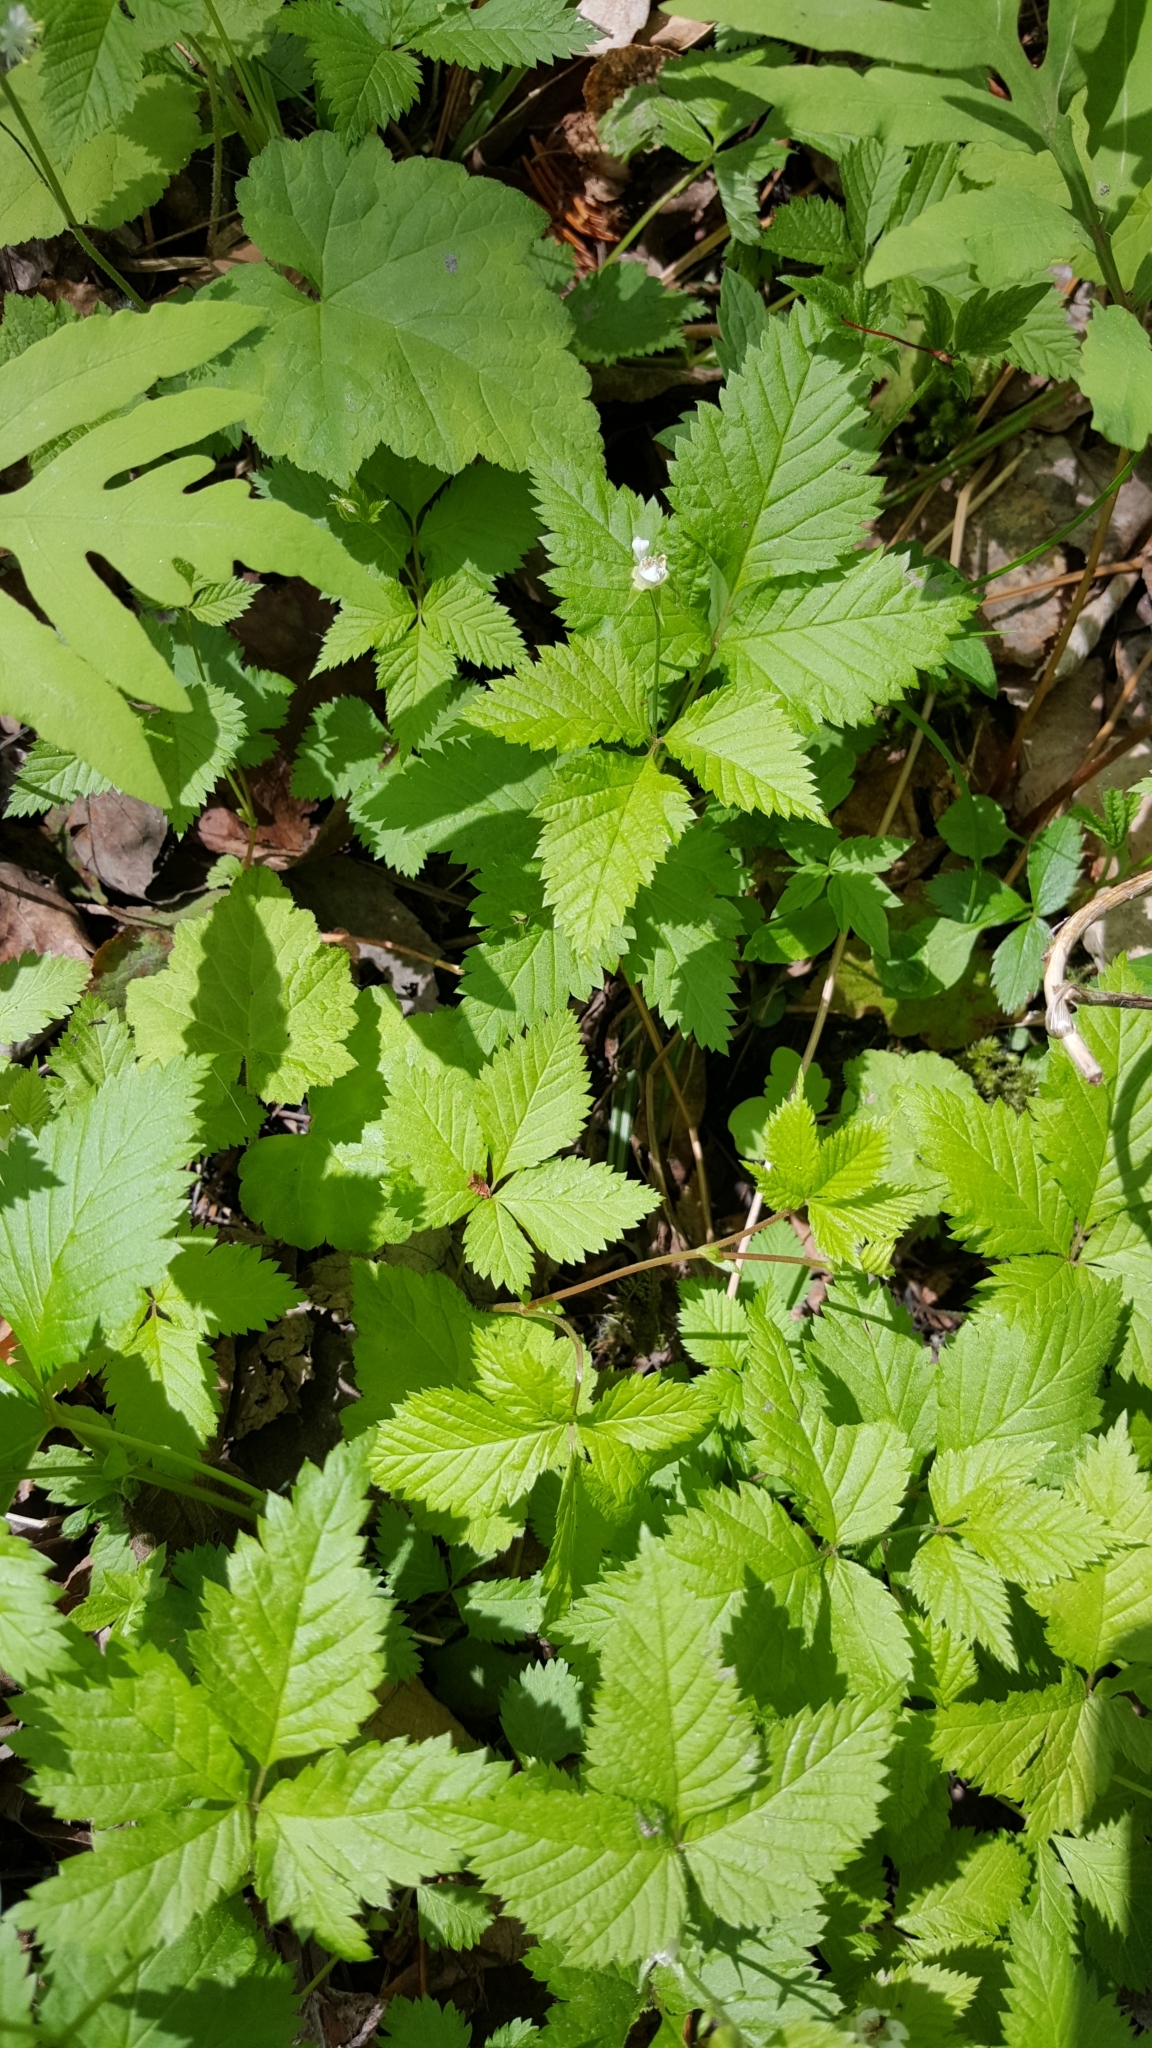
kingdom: Plantae
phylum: Tracheophyta
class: Magnoliopsida
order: Rosales
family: Rosaceae
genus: Rubus
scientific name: Rubus pubescens
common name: Dwarf raspberry
